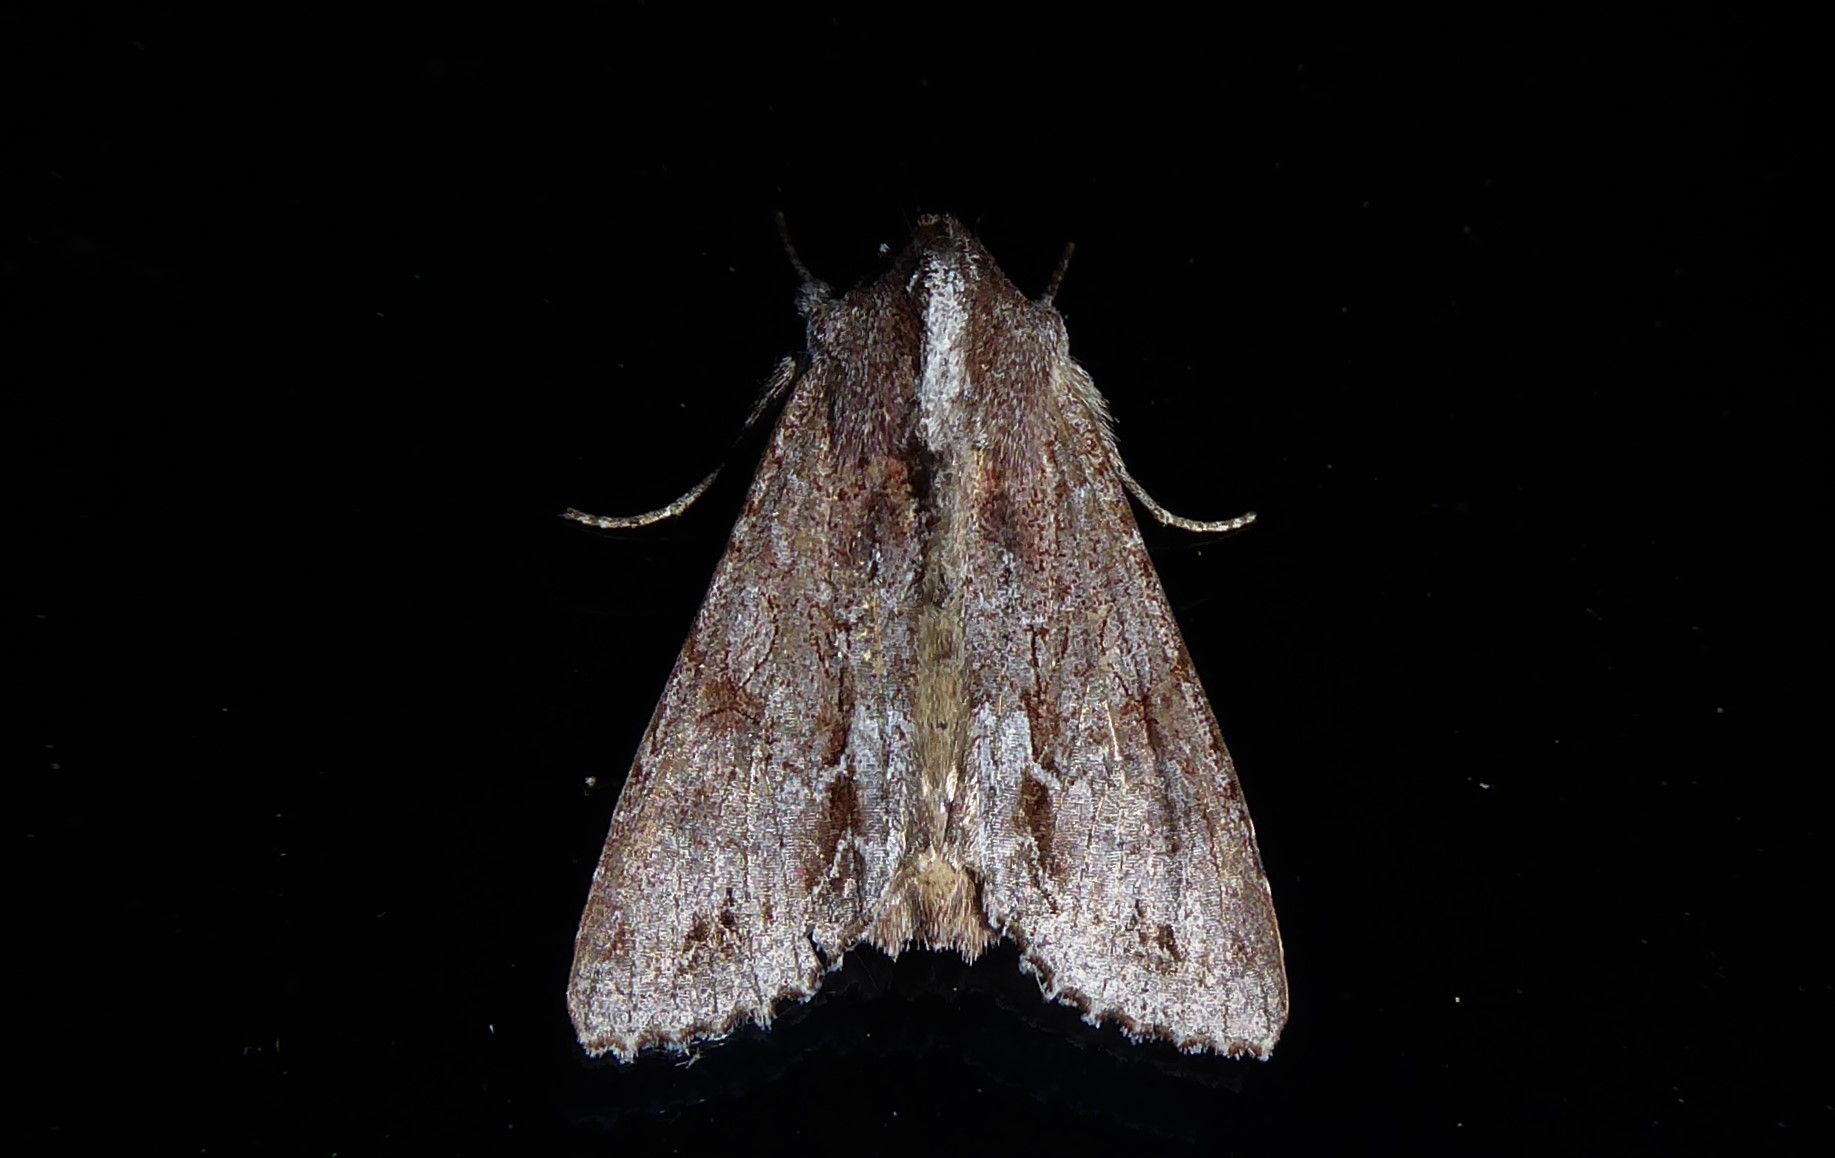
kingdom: Animalia
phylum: Arthropoda
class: Insecta
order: Lepidoptera
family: Noctuidae
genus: Ichneutica
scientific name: Ichneutica
